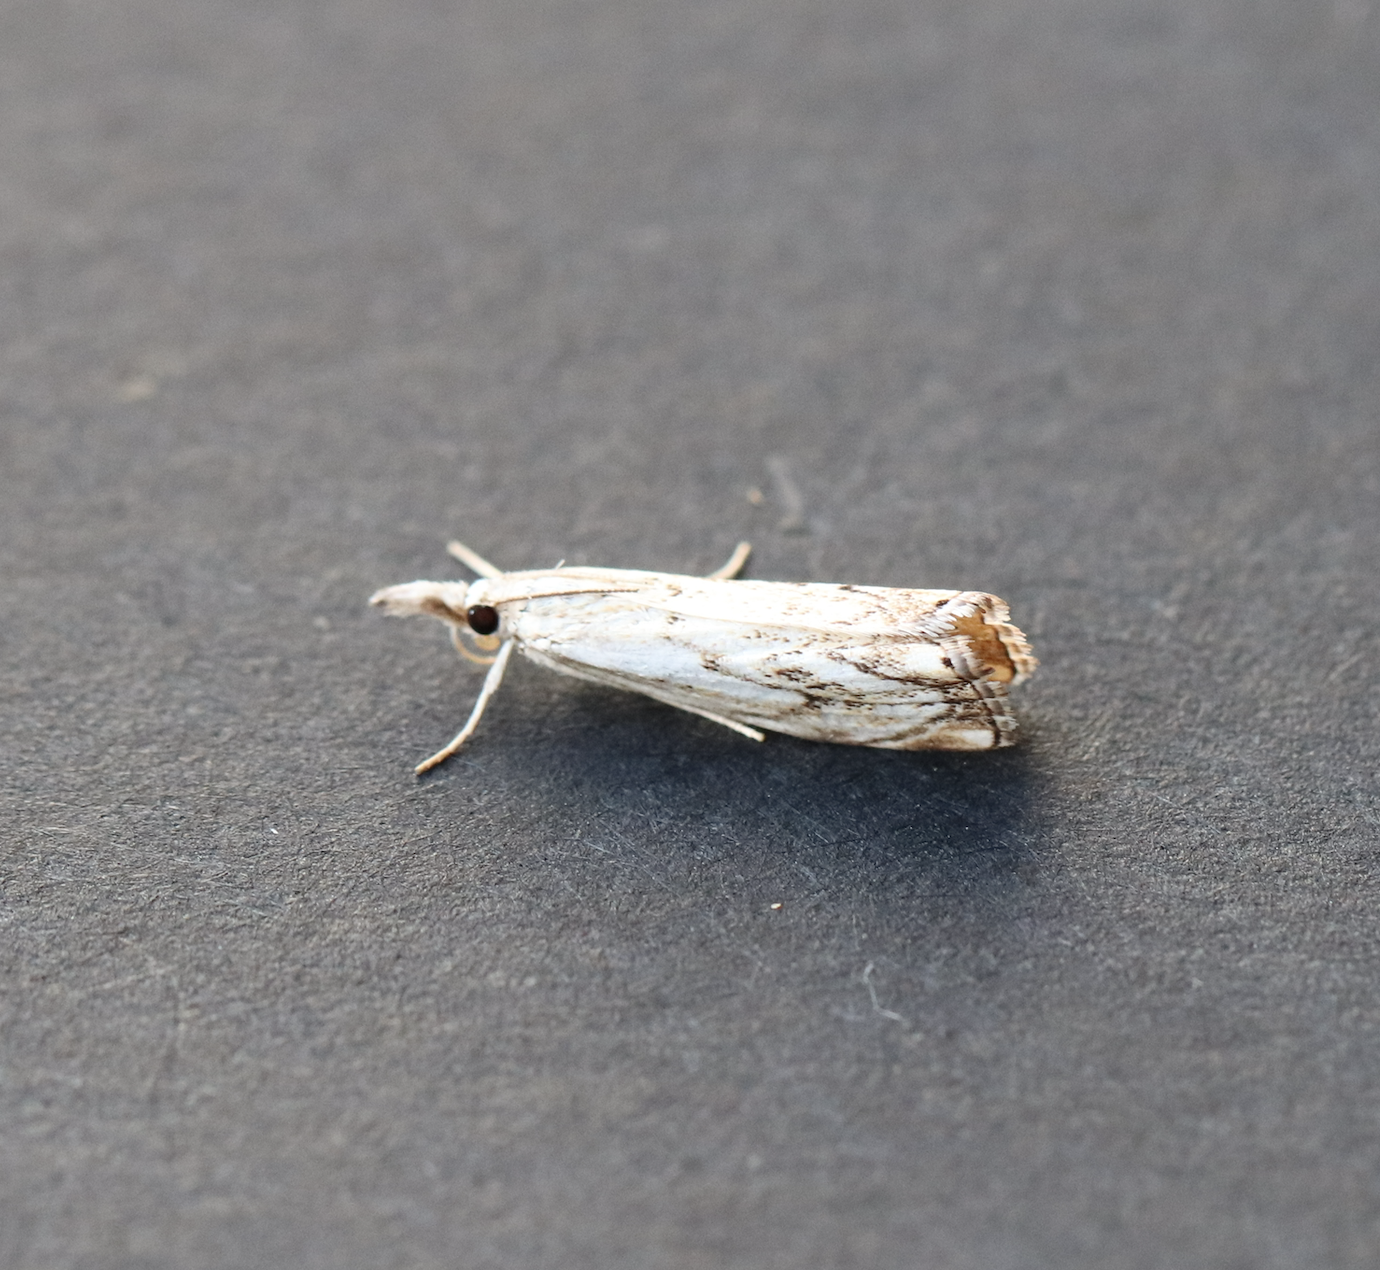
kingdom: Animalia
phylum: Arthropoda
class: Insecta
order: Lepidoptera
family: Crambidae
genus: Catoptria
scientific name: Catoptria falsella
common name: Chequered grass-veneer
